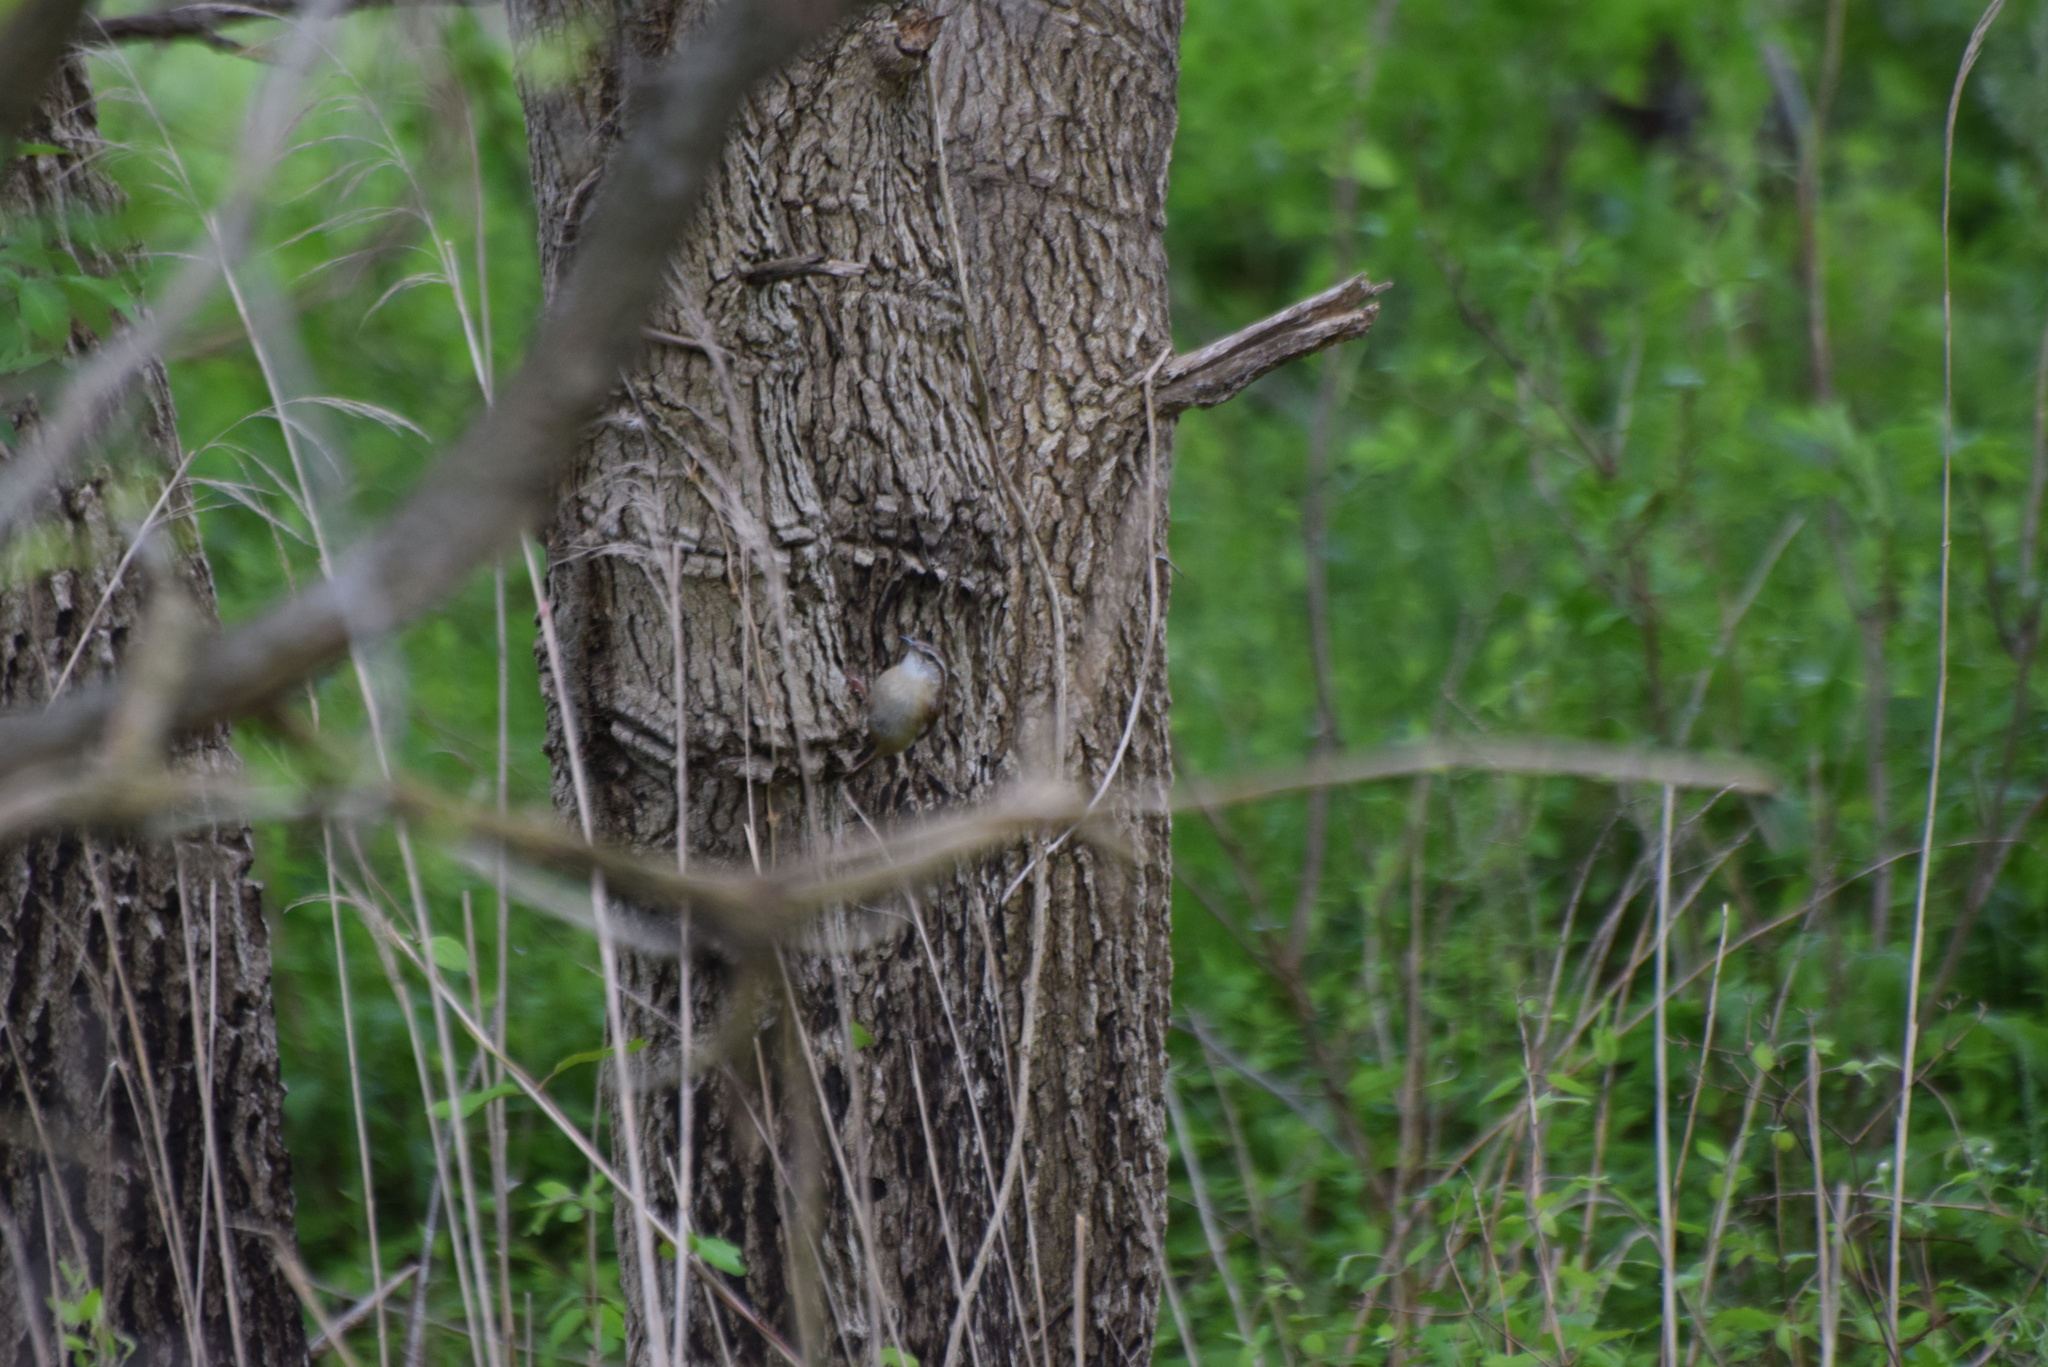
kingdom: Animalia
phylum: Chordata
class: Aves
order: Passeriformes
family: Troglodytidae
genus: Thryothorus
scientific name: Thryothorus ludovicianus
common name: Carolina wren
